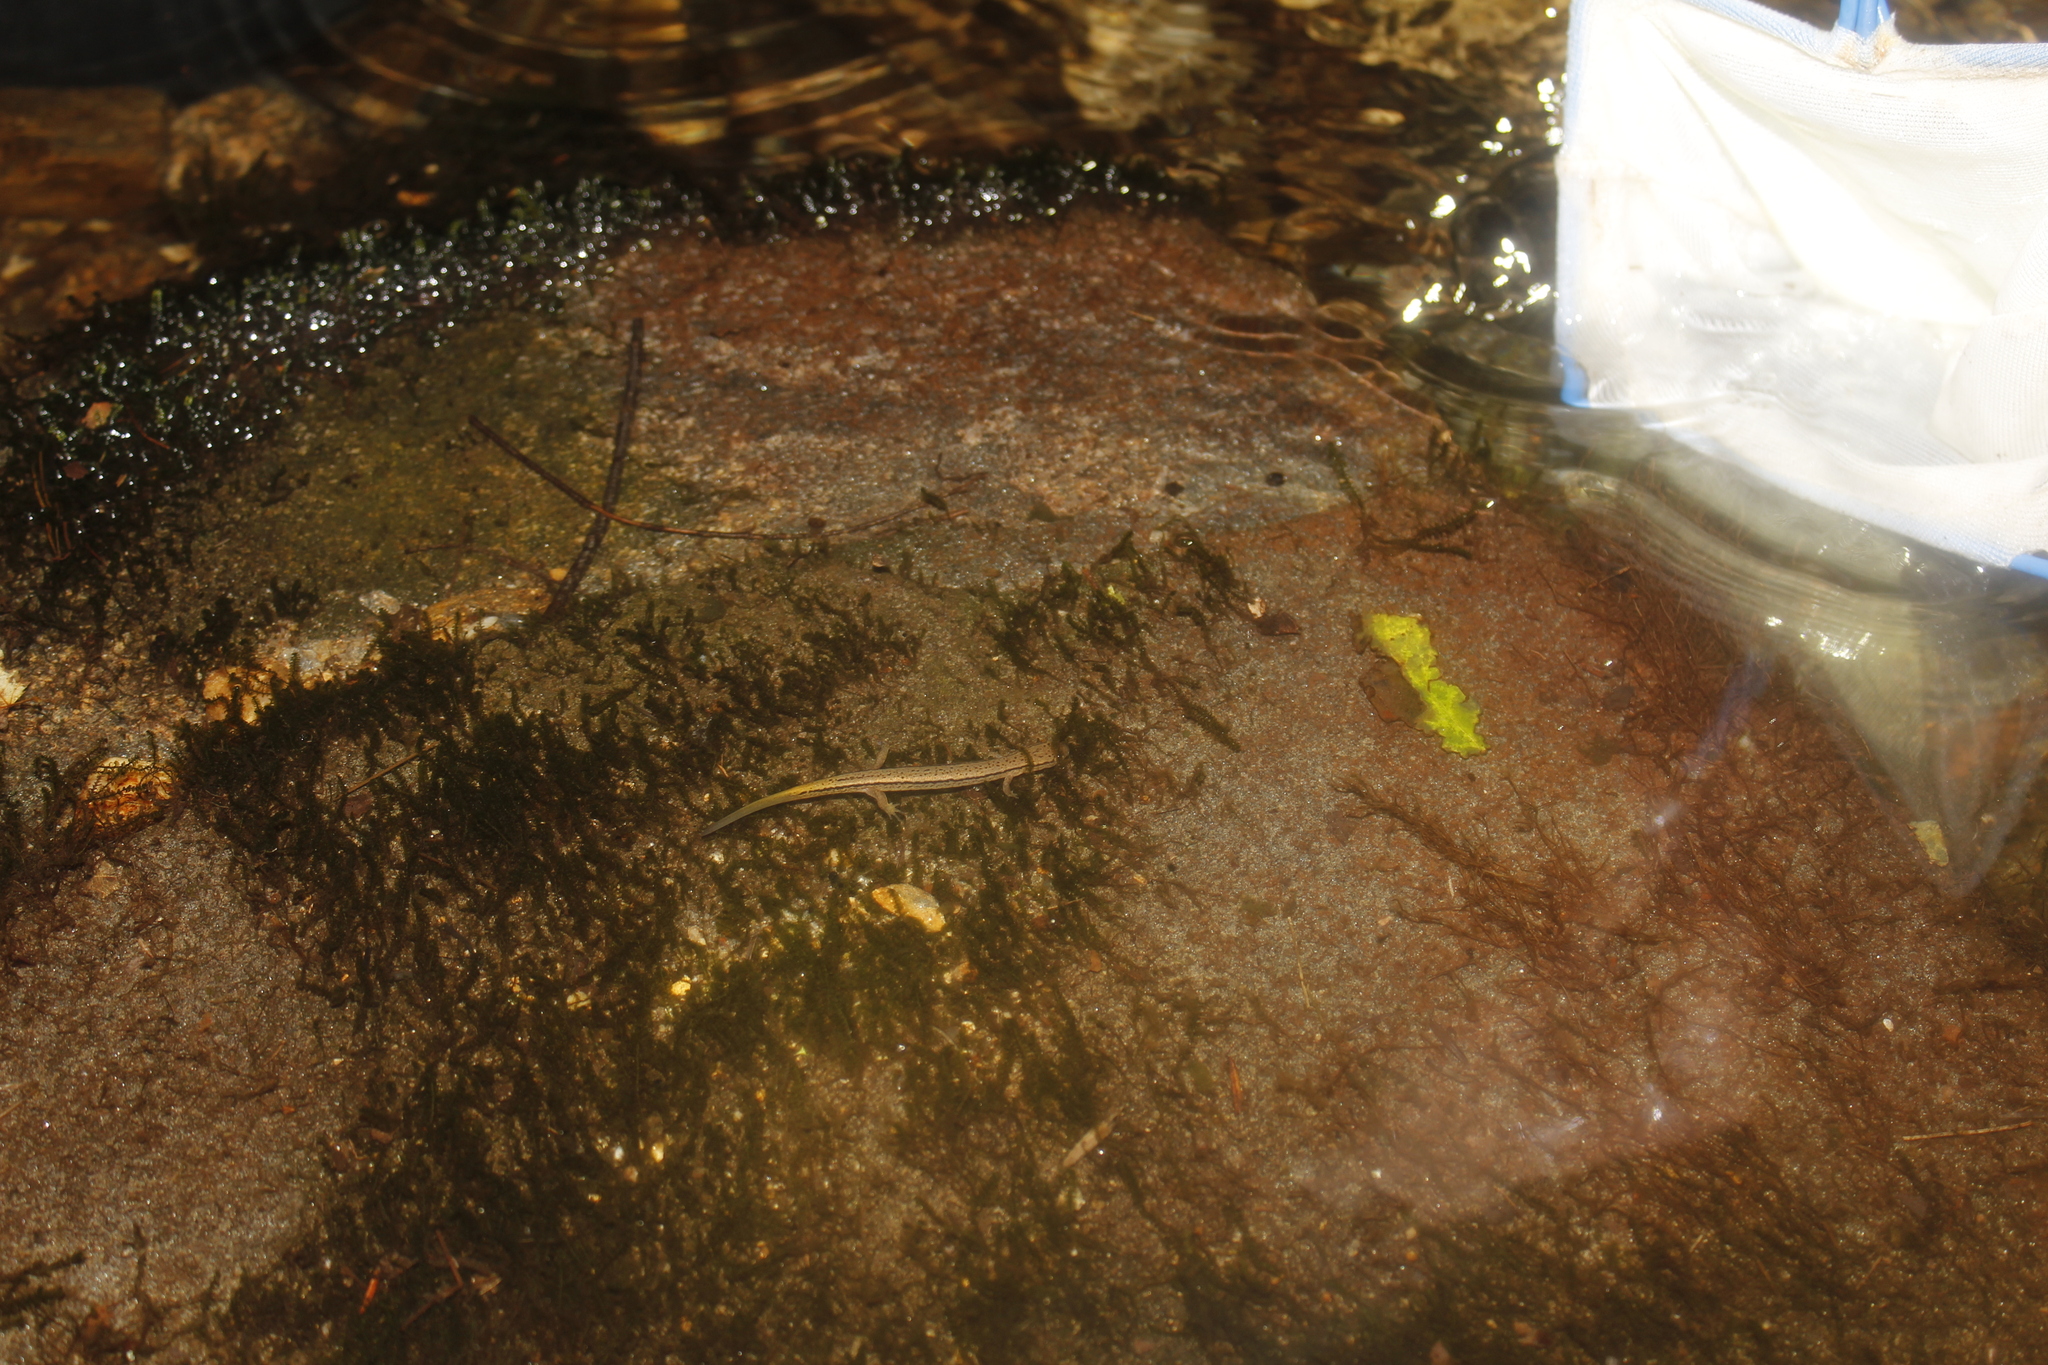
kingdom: Animalia
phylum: Chordata
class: Amphibia
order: Caudata
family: Plethodontidae
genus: Eurycea
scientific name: Eurycea bislineata
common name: Northern two-lined salamander
